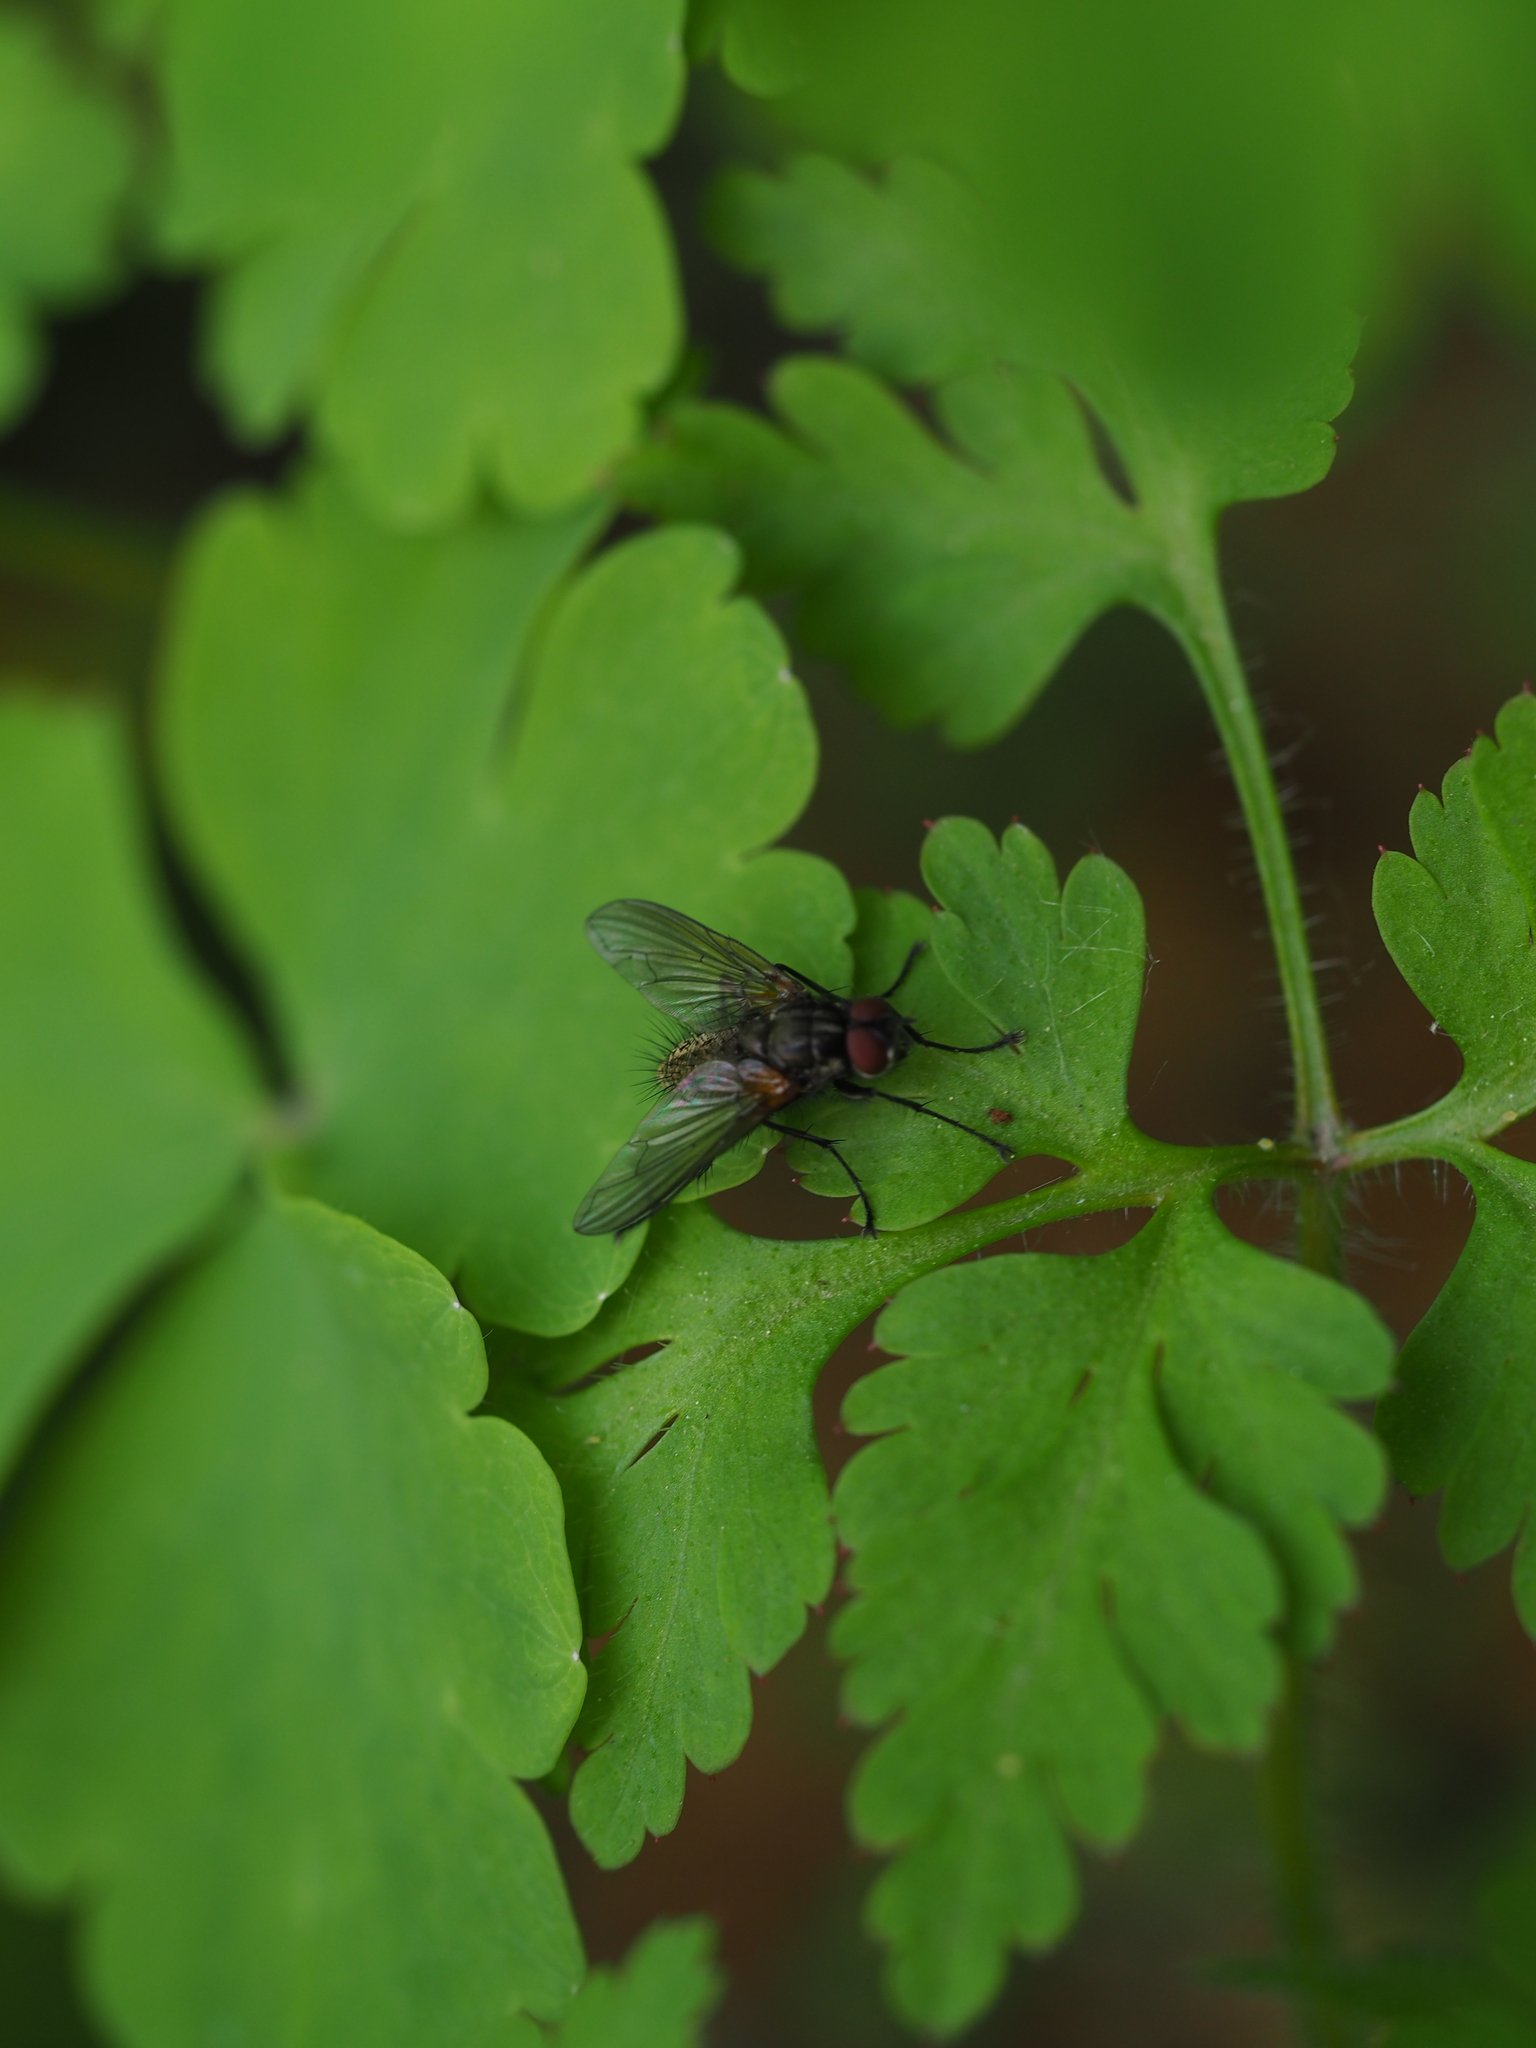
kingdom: Animalia
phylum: Arthropoda
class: Insecta
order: Diptera
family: Tachinidae
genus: Macquartia
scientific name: Macquartia grisea
